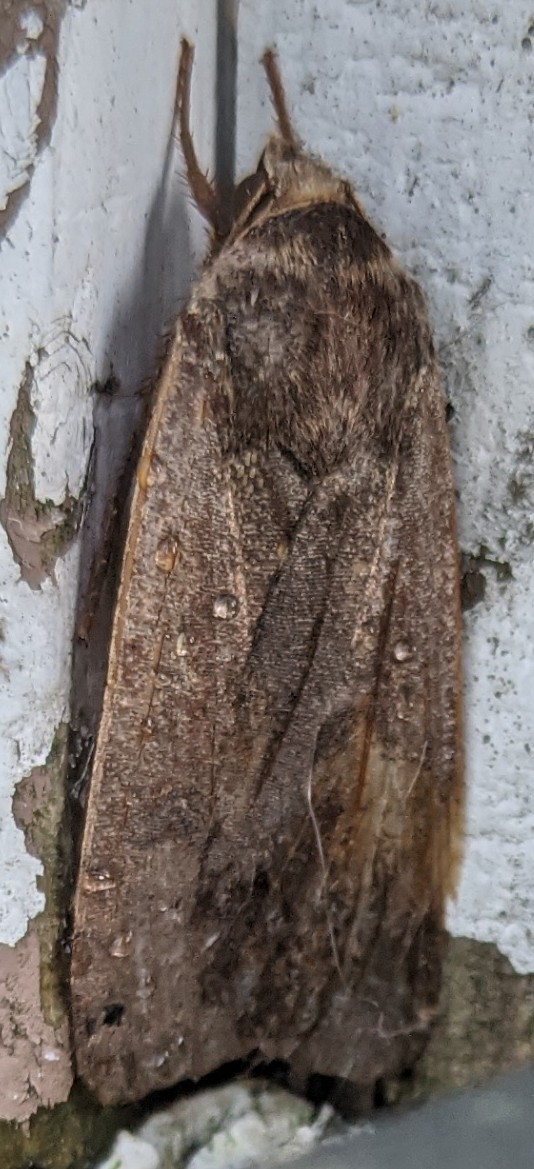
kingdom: Animalia
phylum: Arthropoda
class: Insecta
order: Lepidoptera
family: Noctuidae
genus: Noctua
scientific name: Noctua pronuba
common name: Large yellow underwing
